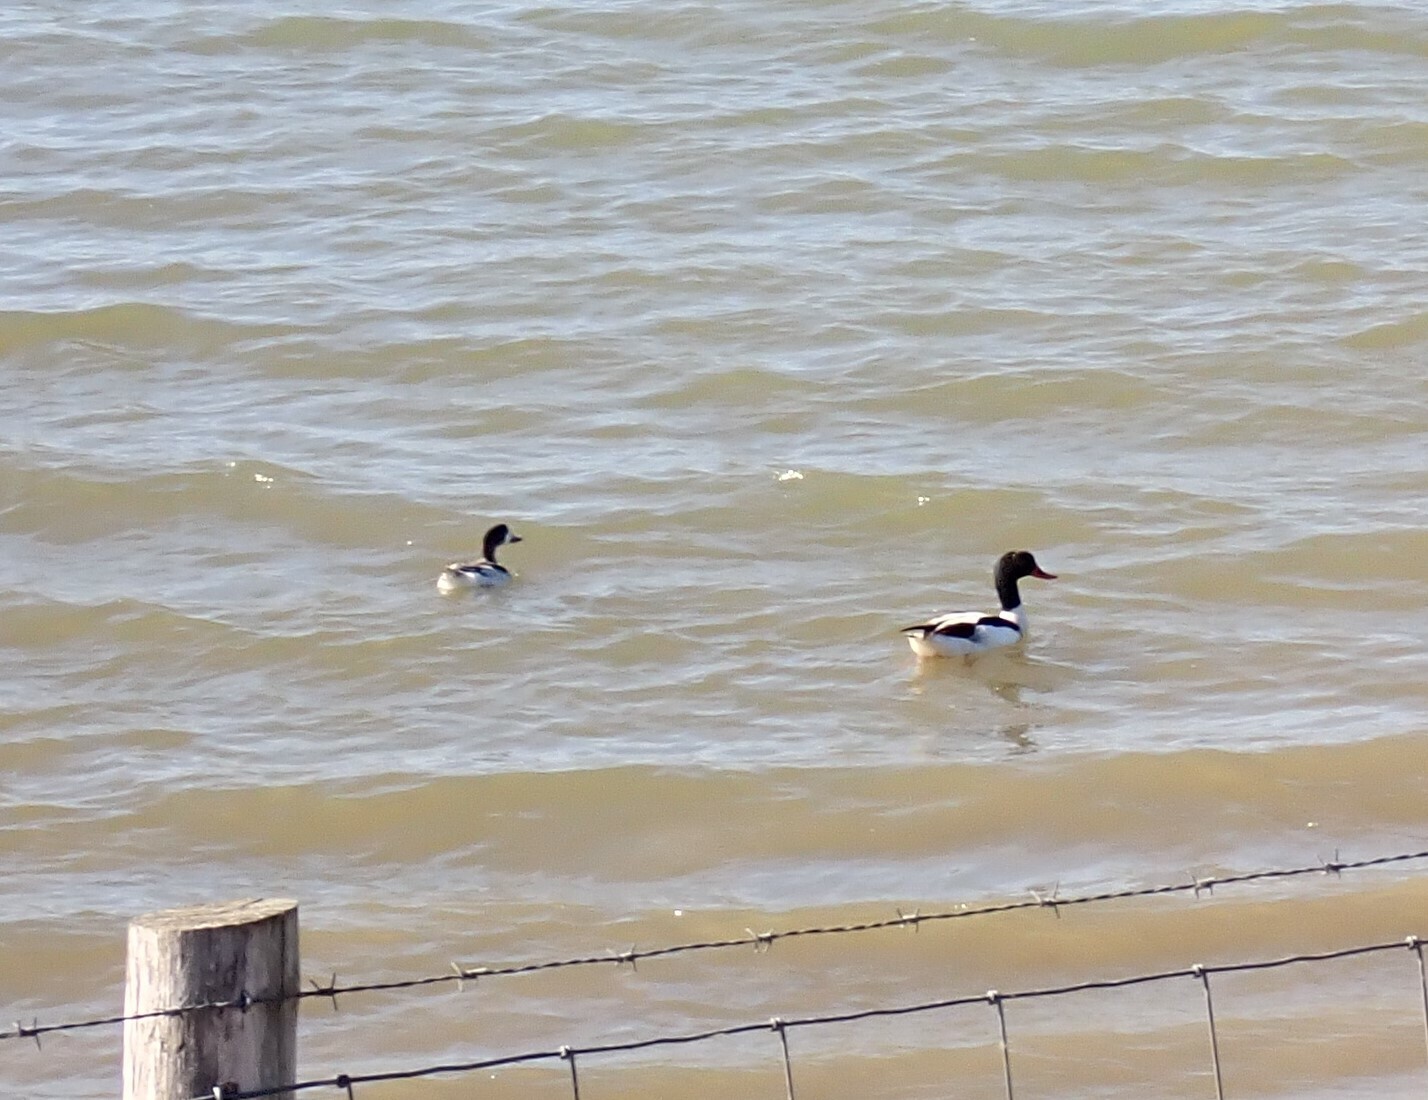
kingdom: Animalia
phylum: Chordata
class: Aves
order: Anseriformes
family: Anatidae
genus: Tadorna
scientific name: Tadorna tadorna
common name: Common shelduck
